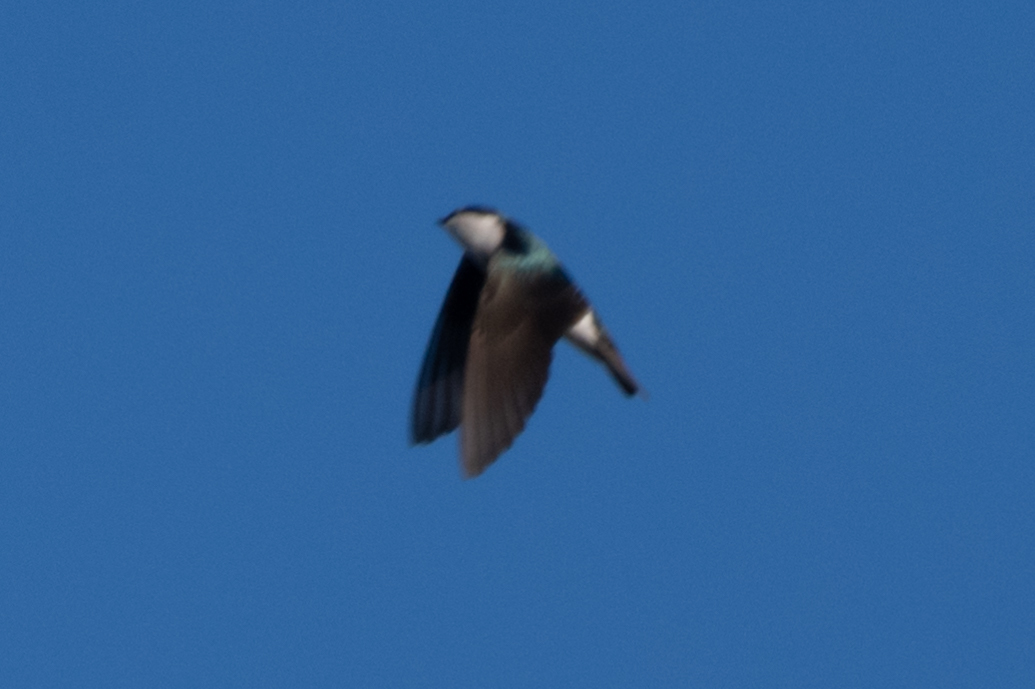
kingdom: Animalia
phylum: Chordata
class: Aves
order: Passeriformes
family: Hirundinidae
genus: Tachycineta
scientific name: Tachycineta bicolor
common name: Tree swallow
